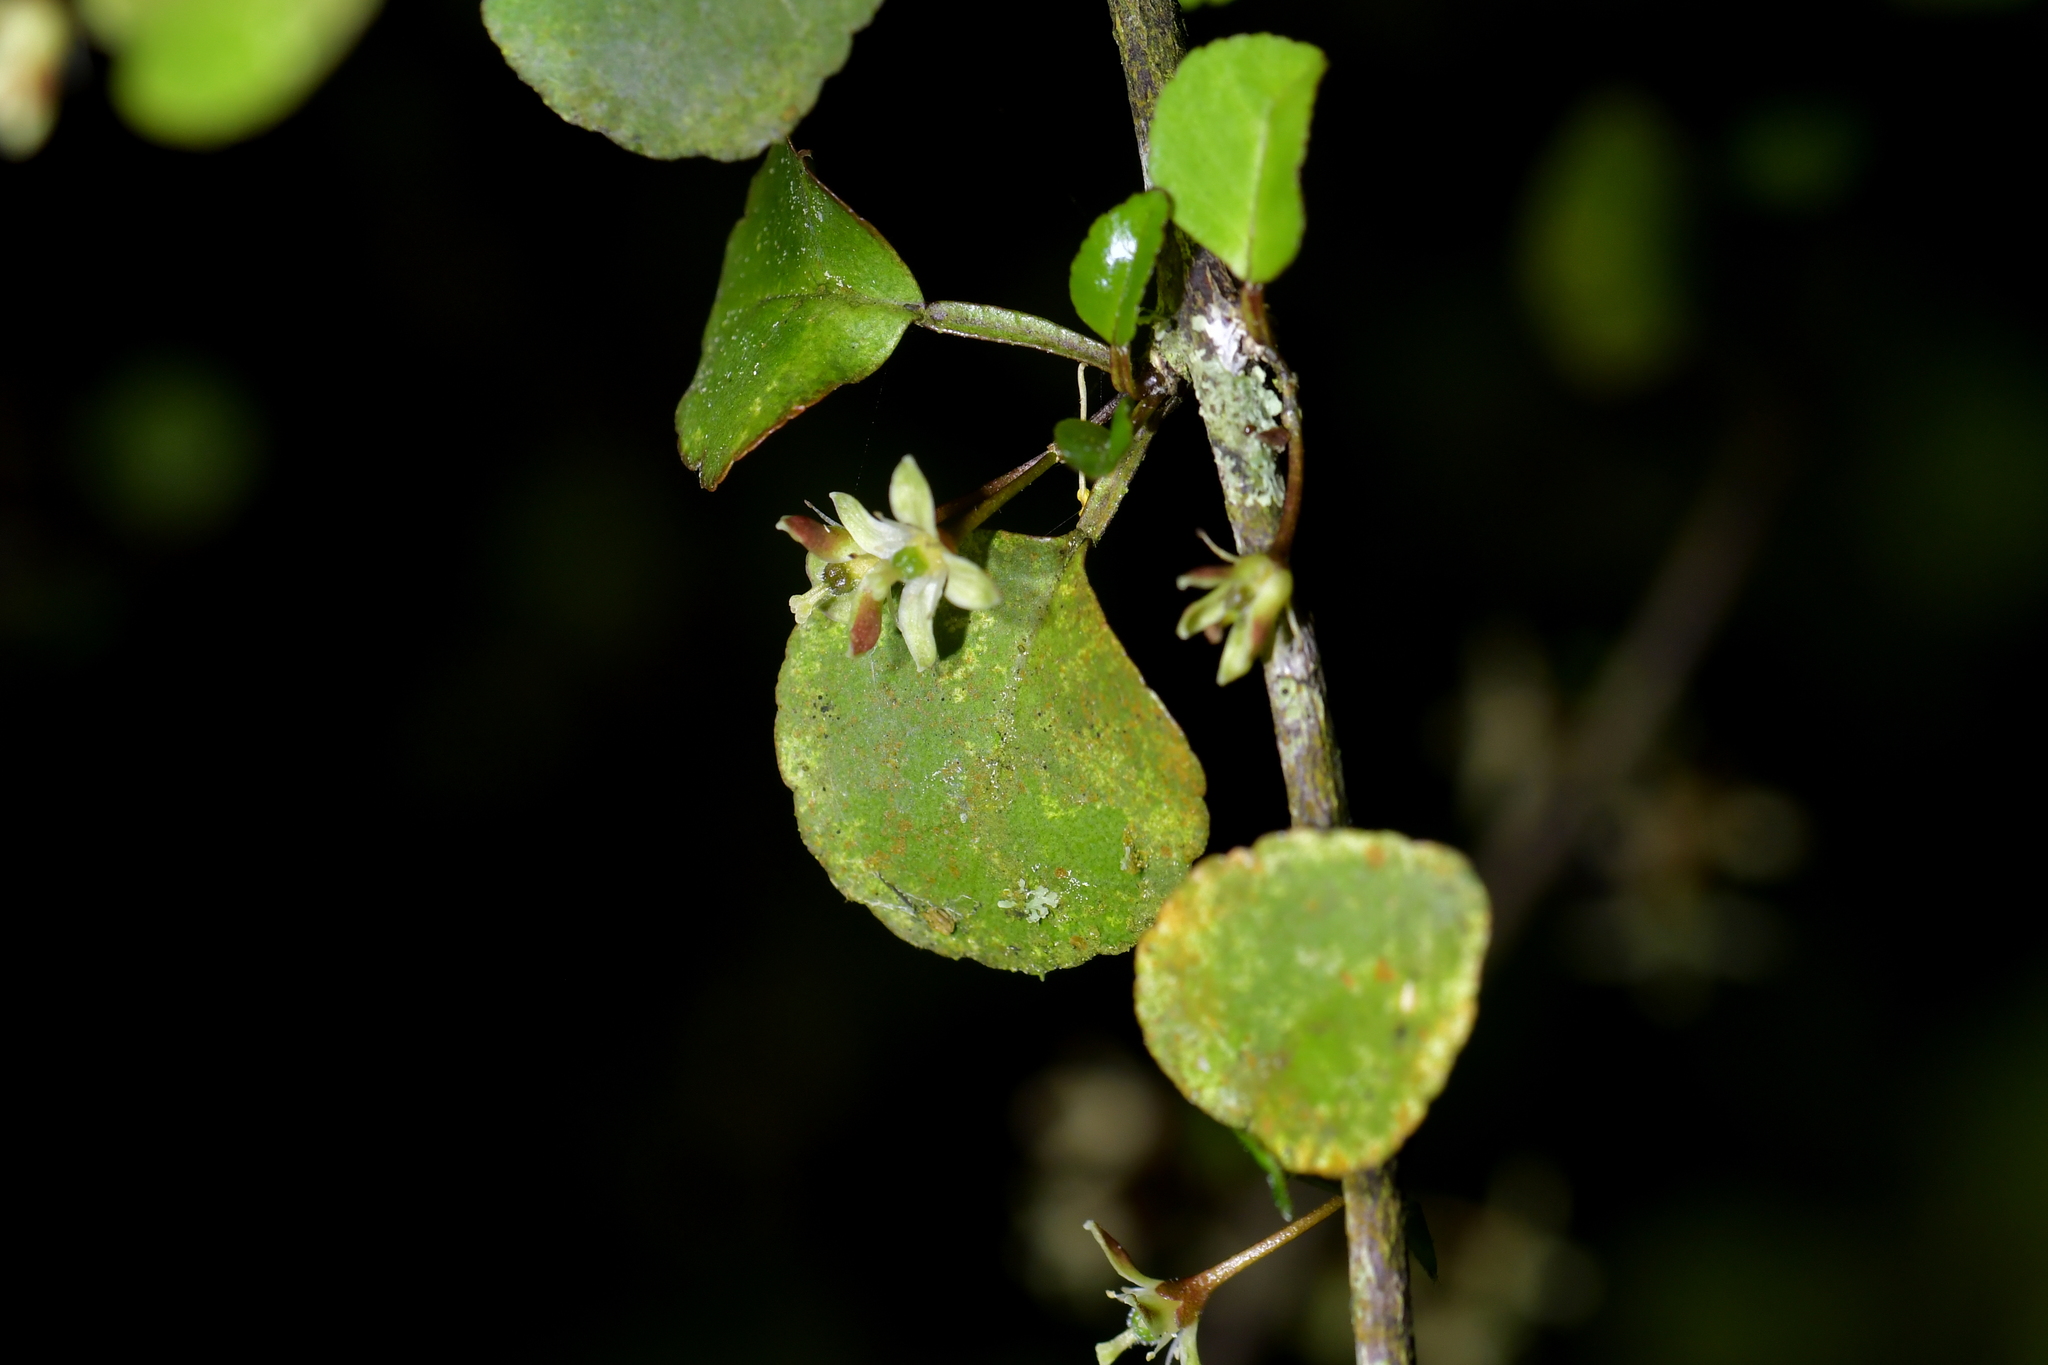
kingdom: Plantae
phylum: Tracheophyta
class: Magnoliopsida
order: Sapindales
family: Rutaceae
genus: Melicope
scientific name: Melicope simplex
